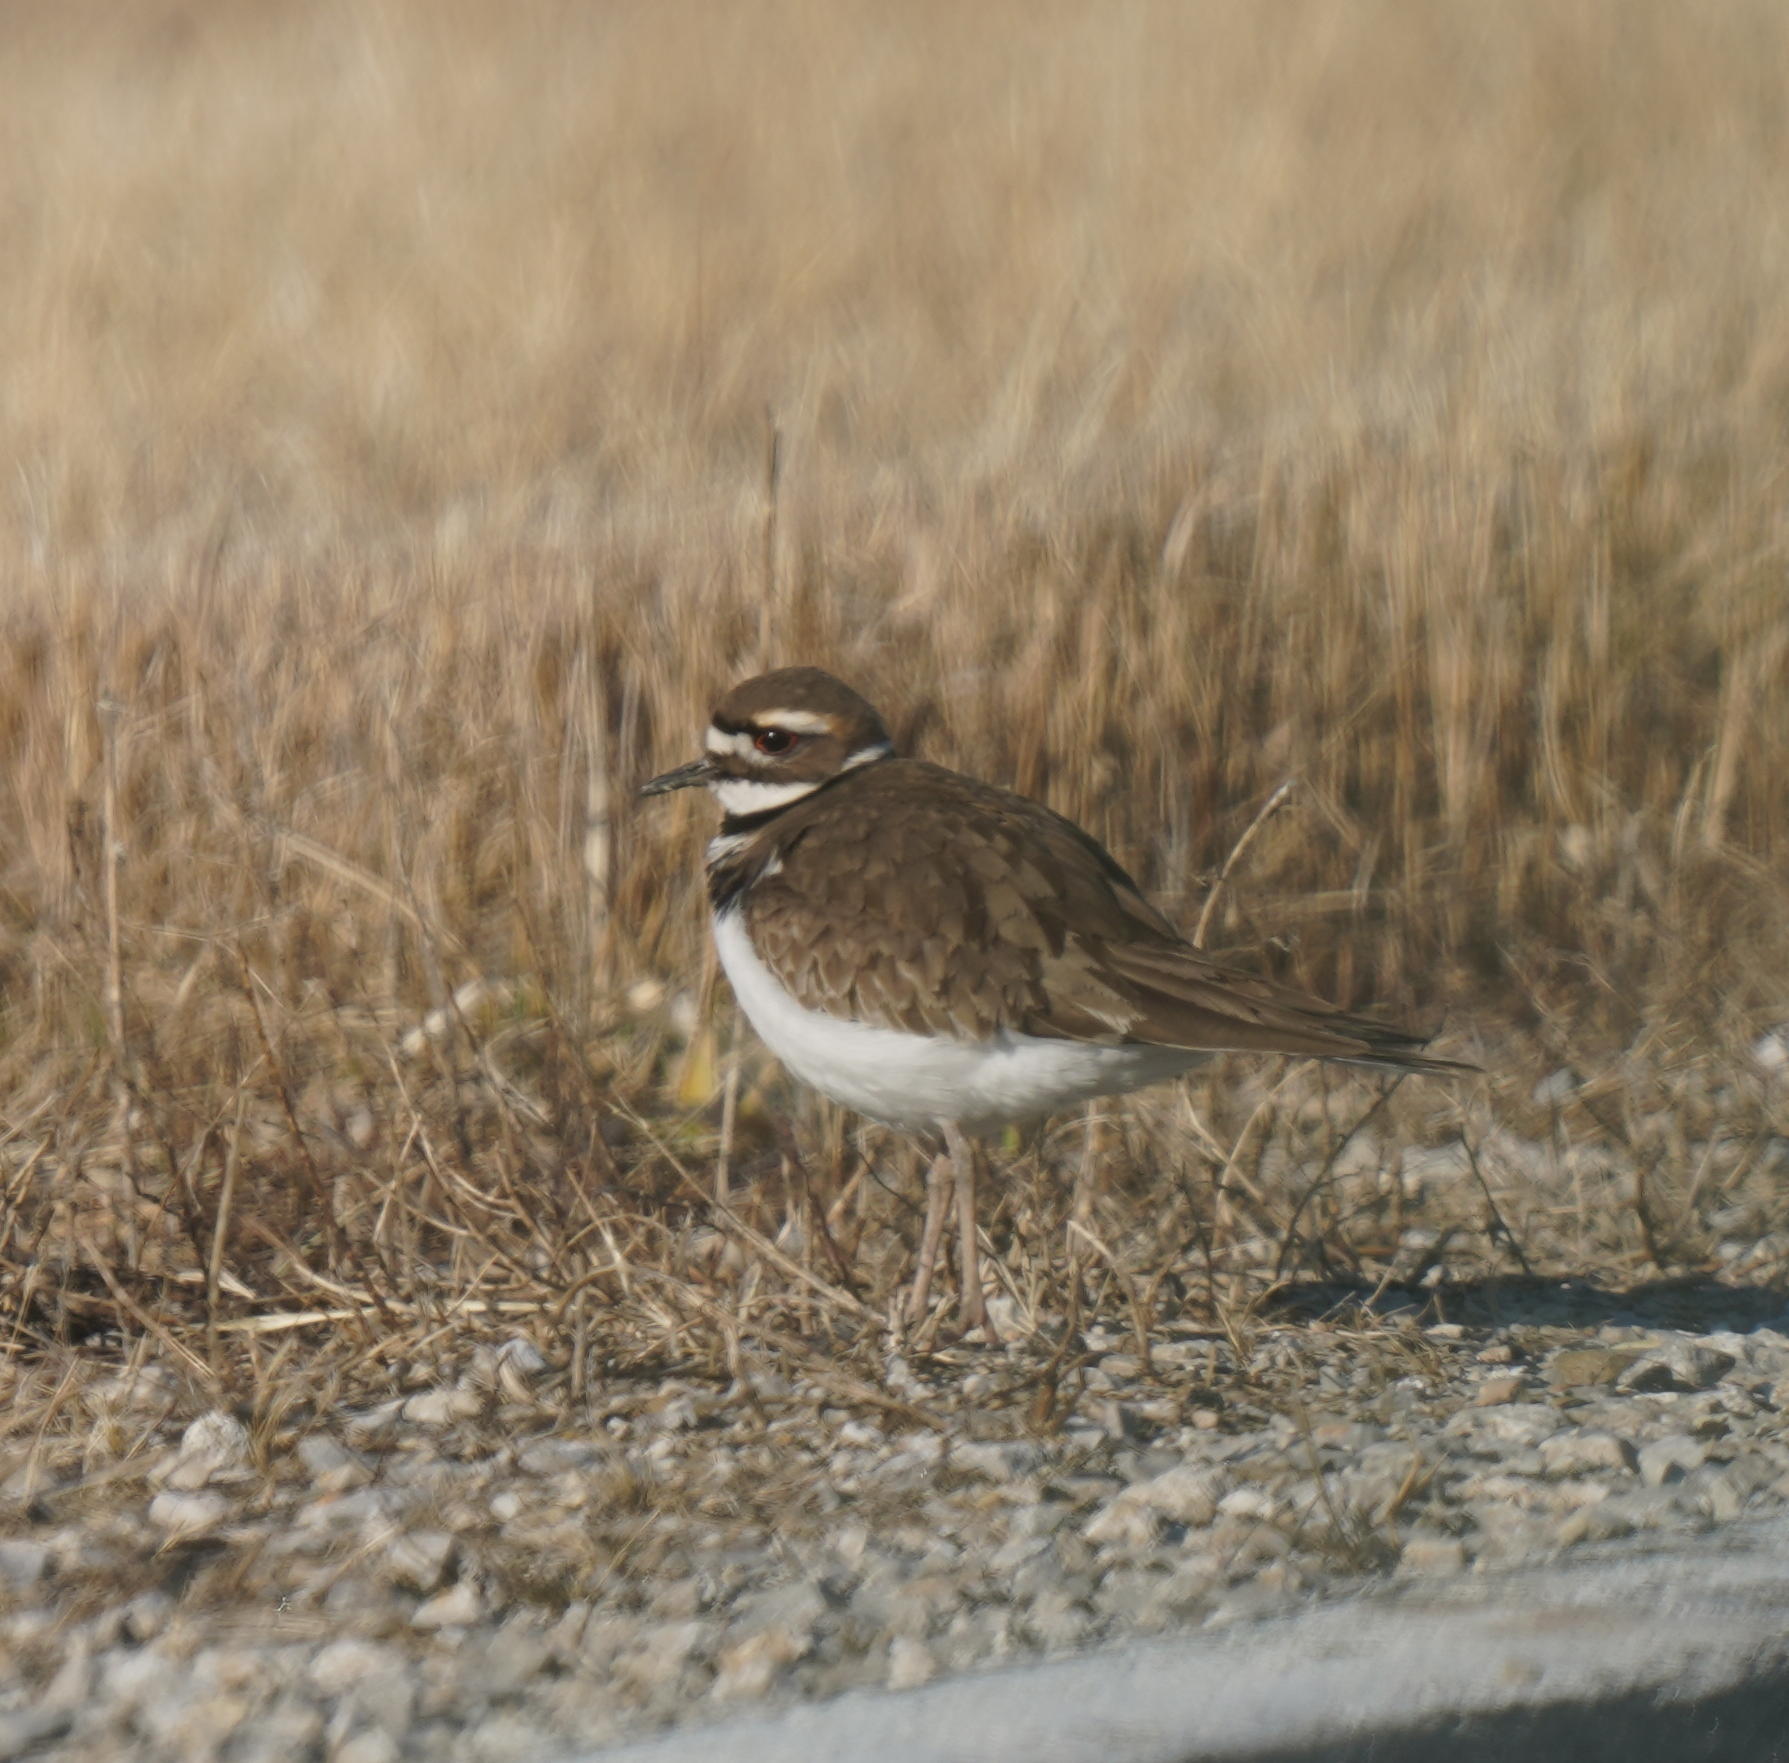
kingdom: Animalia
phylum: Chordata
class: Aves
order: Charadriiformes
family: Charadriidae
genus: Charadrius
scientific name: Charadrius vociferus
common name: Killdeer
